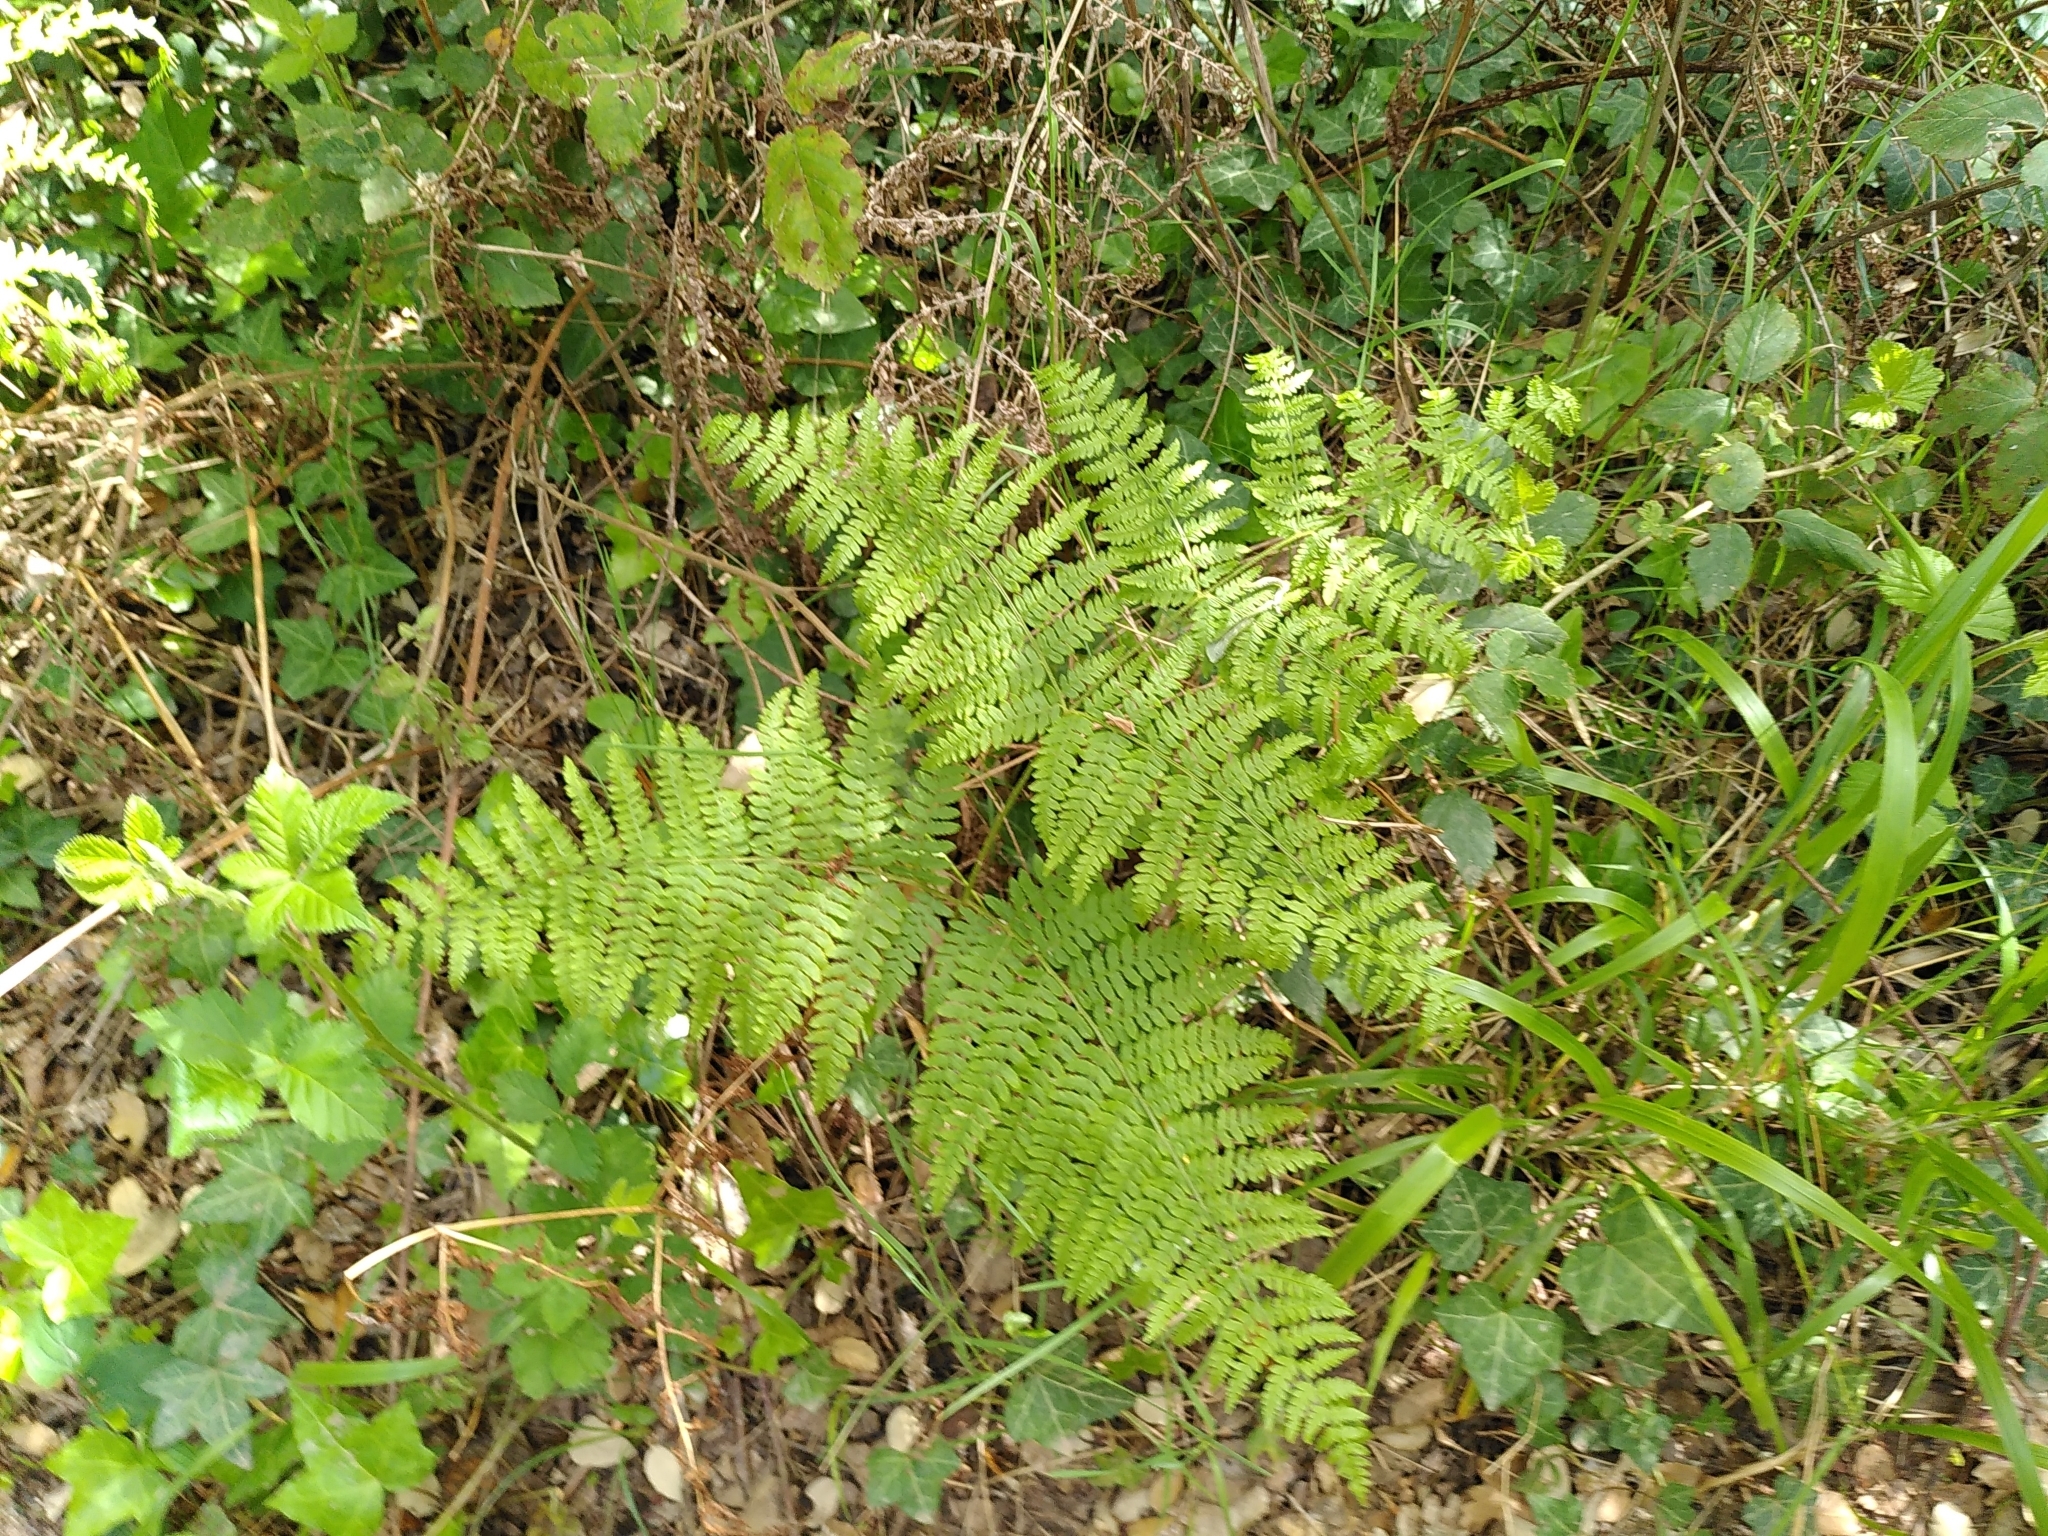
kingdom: Plantae
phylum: Tracheophyta
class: Polypodiopsida
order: Polypodiales
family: Dennstaedtiaceae
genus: Pteridium
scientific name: Pteridium aquilinum
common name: Bracken
